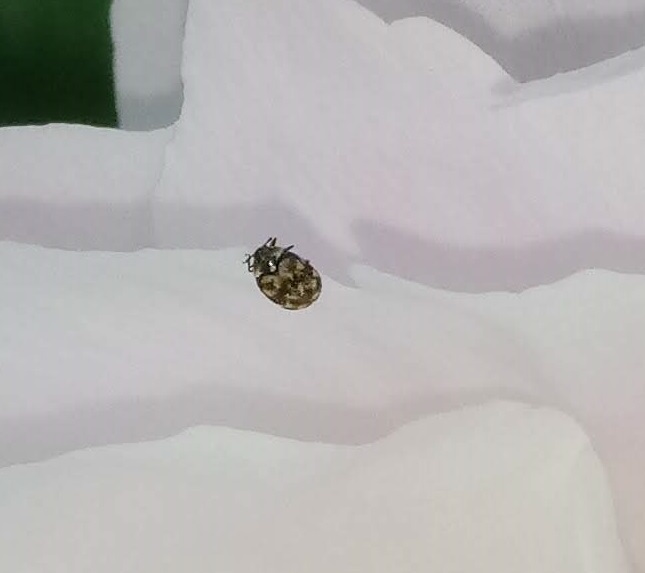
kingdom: Animalia
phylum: Arthropoda
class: Insecta
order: Coleoptera
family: Dermestidae
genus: Anthrenus
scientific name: Anthrenus verbasci
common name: Varied carpet beetle
